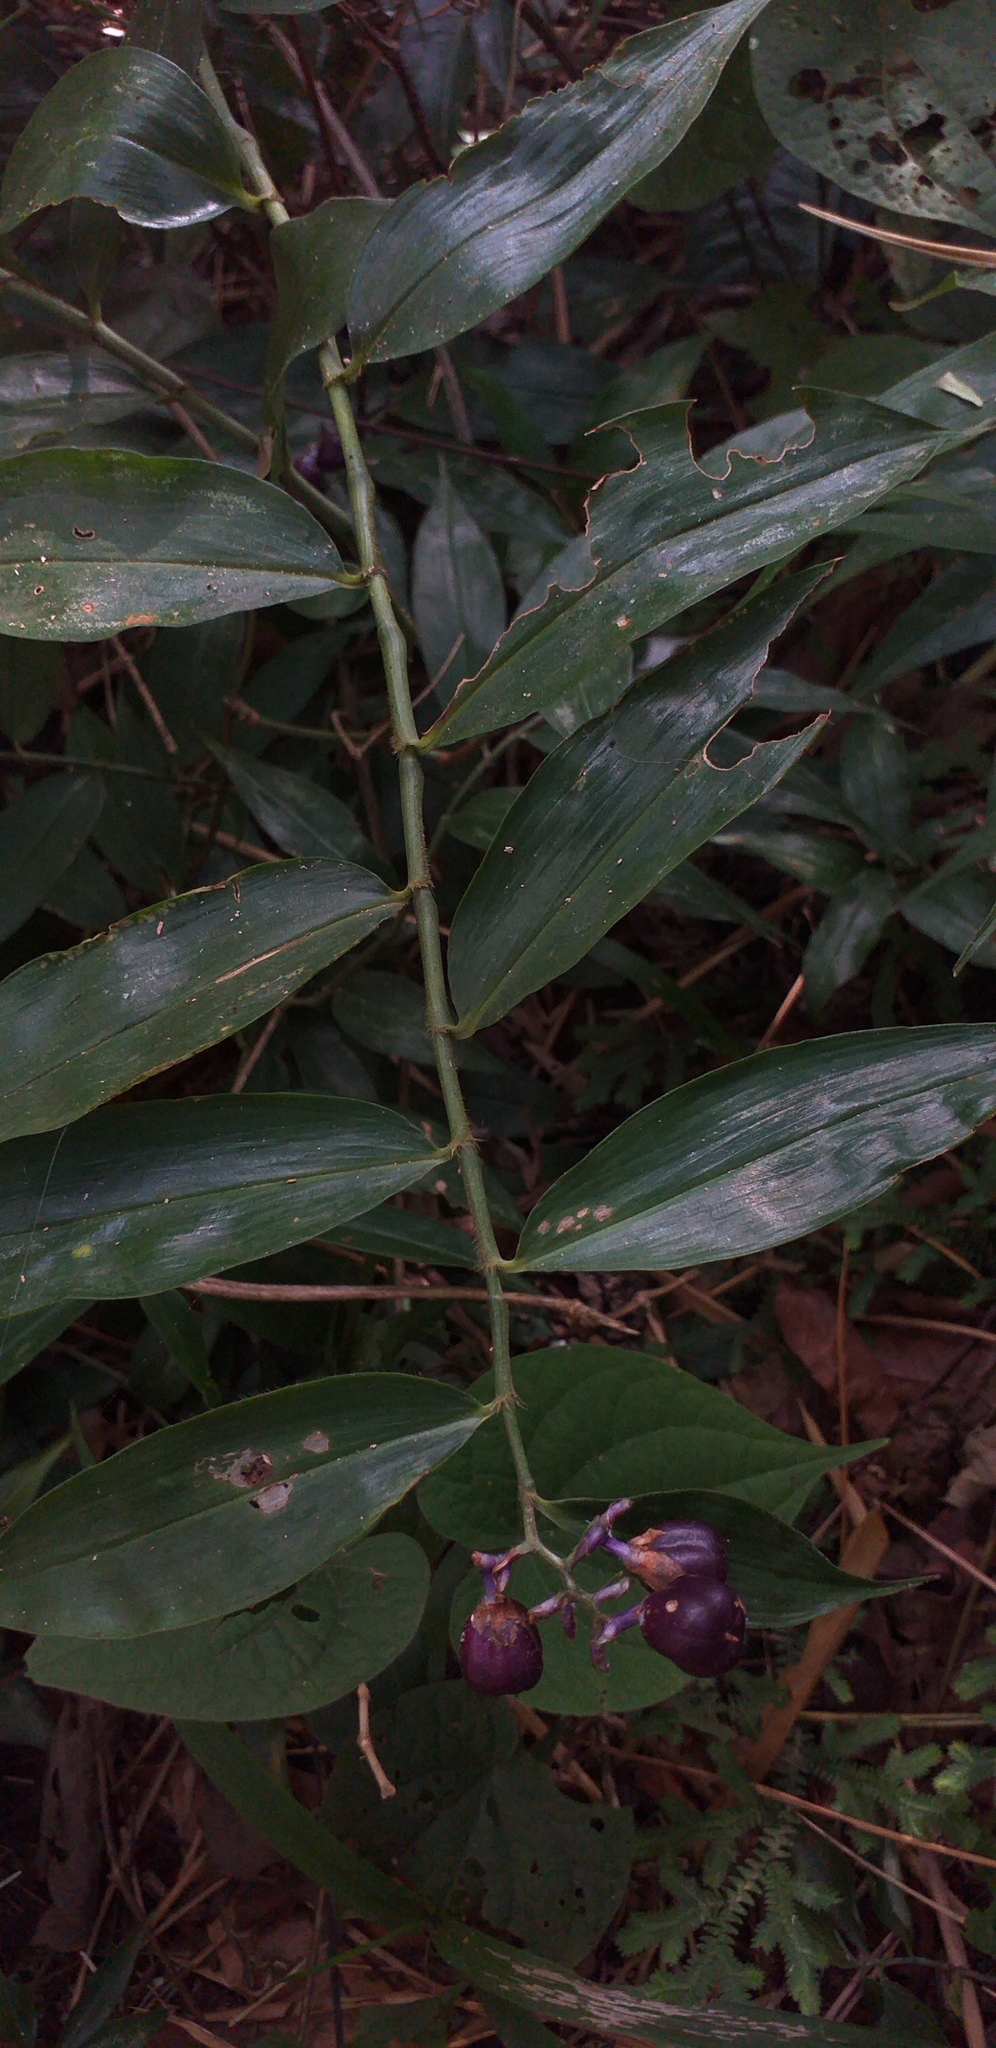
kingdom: Plantae
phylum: Tracheophyta
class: Liliopsida
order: Commelinales
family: Commelinaceae
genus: Dichorisandra
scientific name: Dichorisandra hexandra
